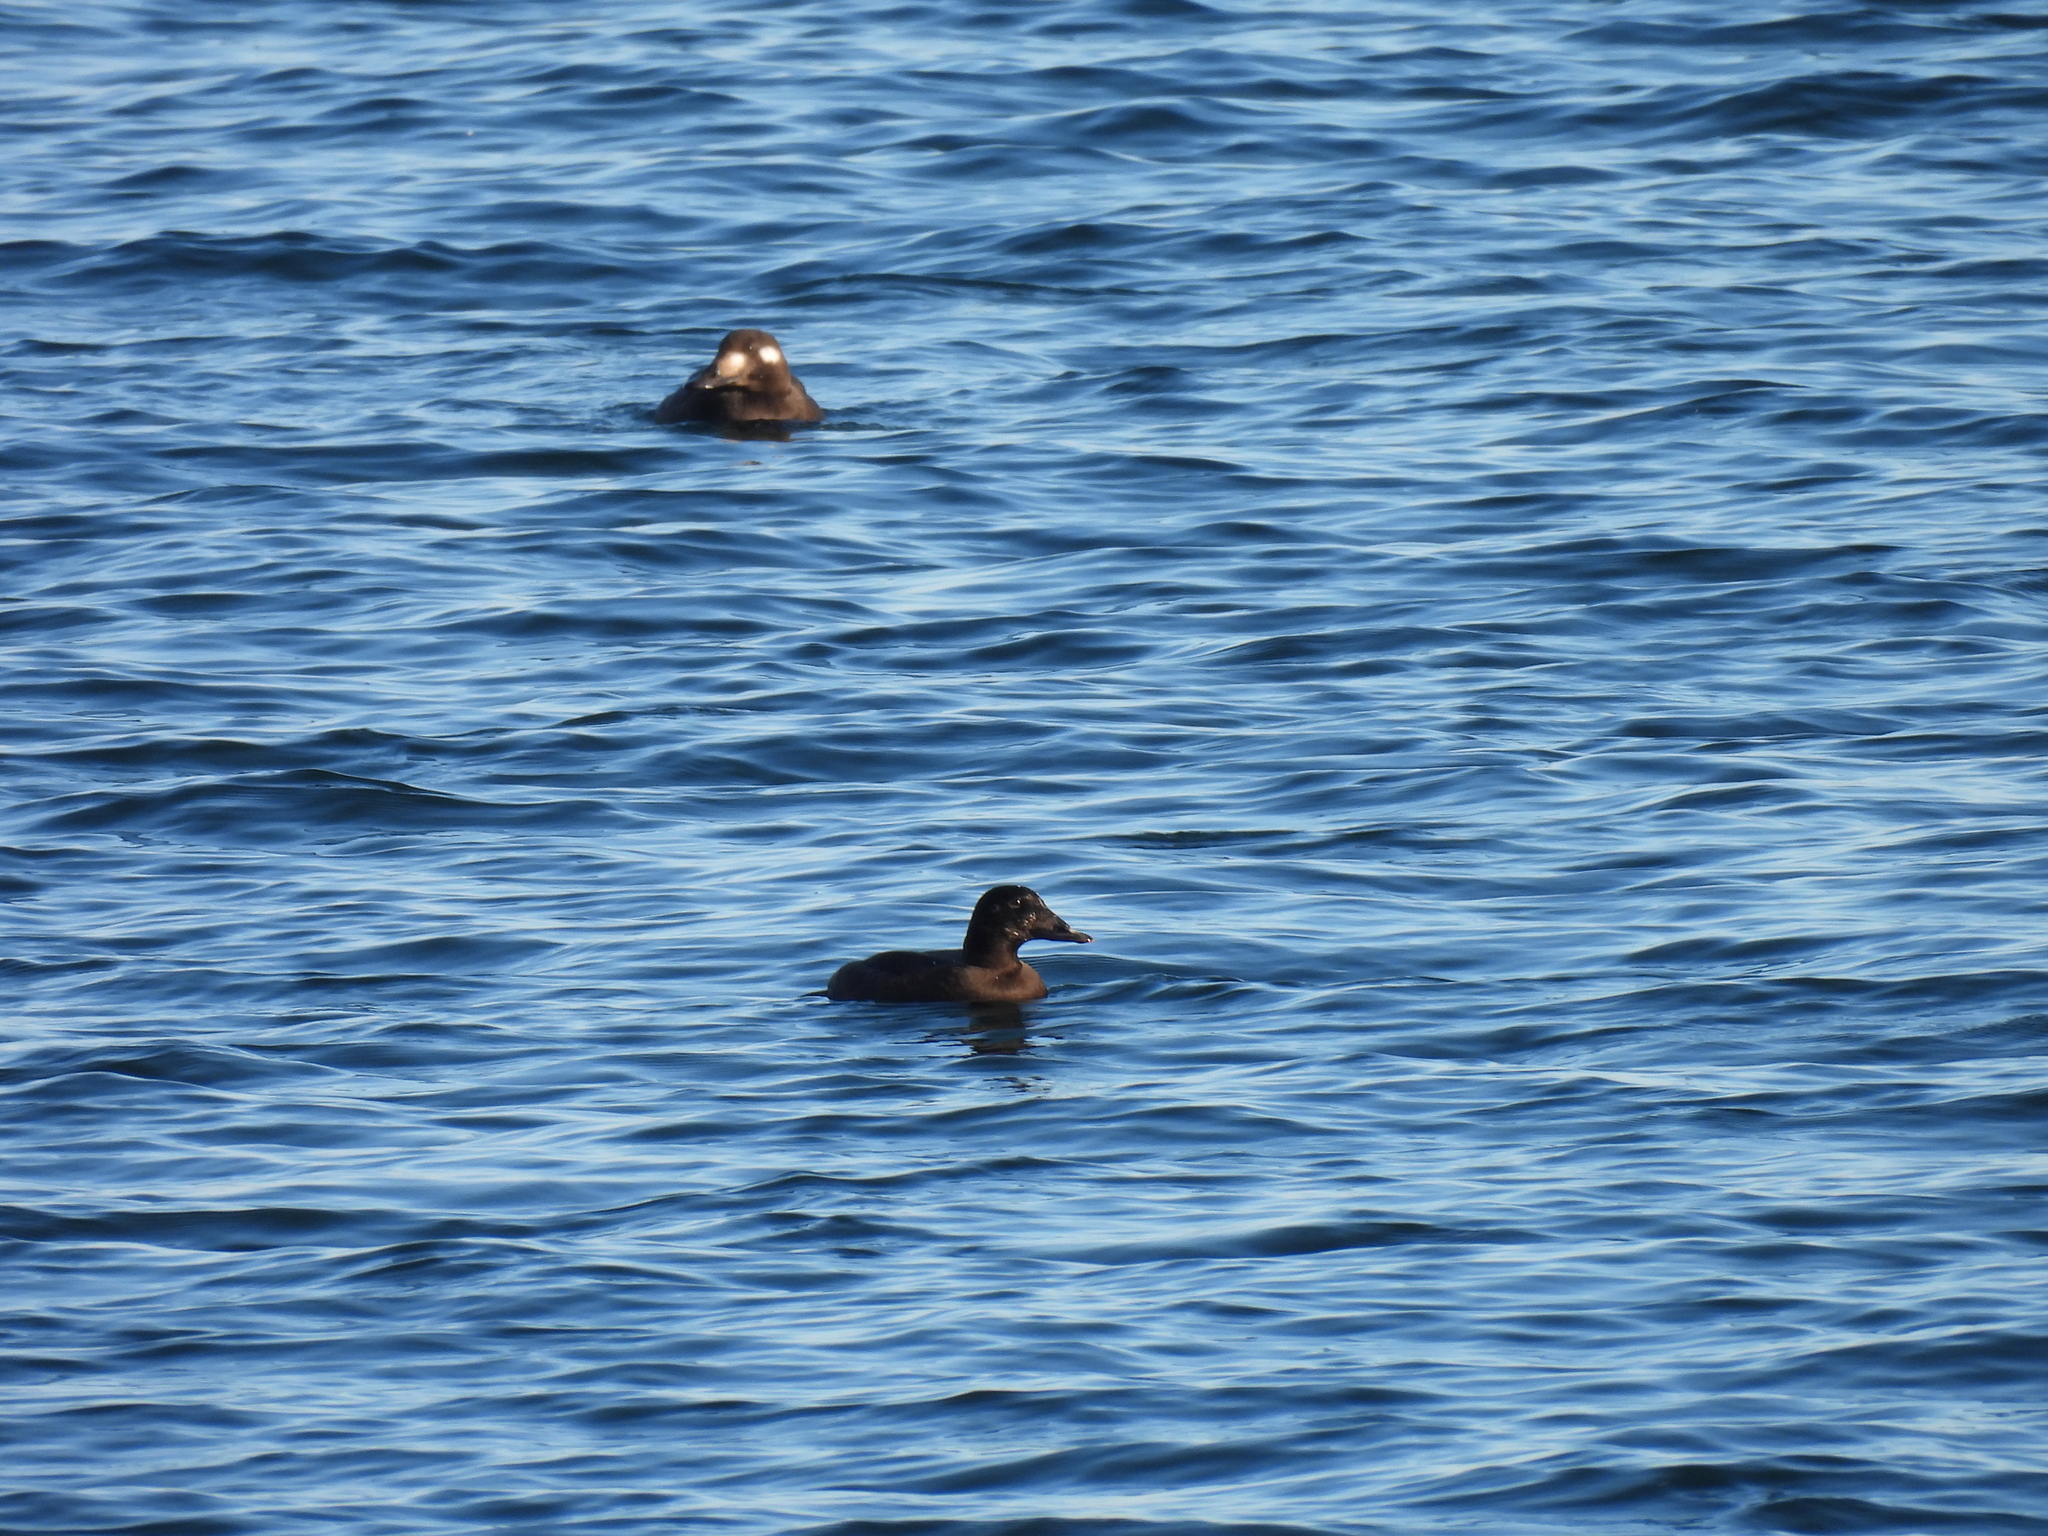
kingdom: Animalia
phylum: Chordata
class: Aves
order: Anseriformes
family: Anatidae
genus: Melanitta
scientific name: Melanitta deglandi
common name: White-winged scoter
